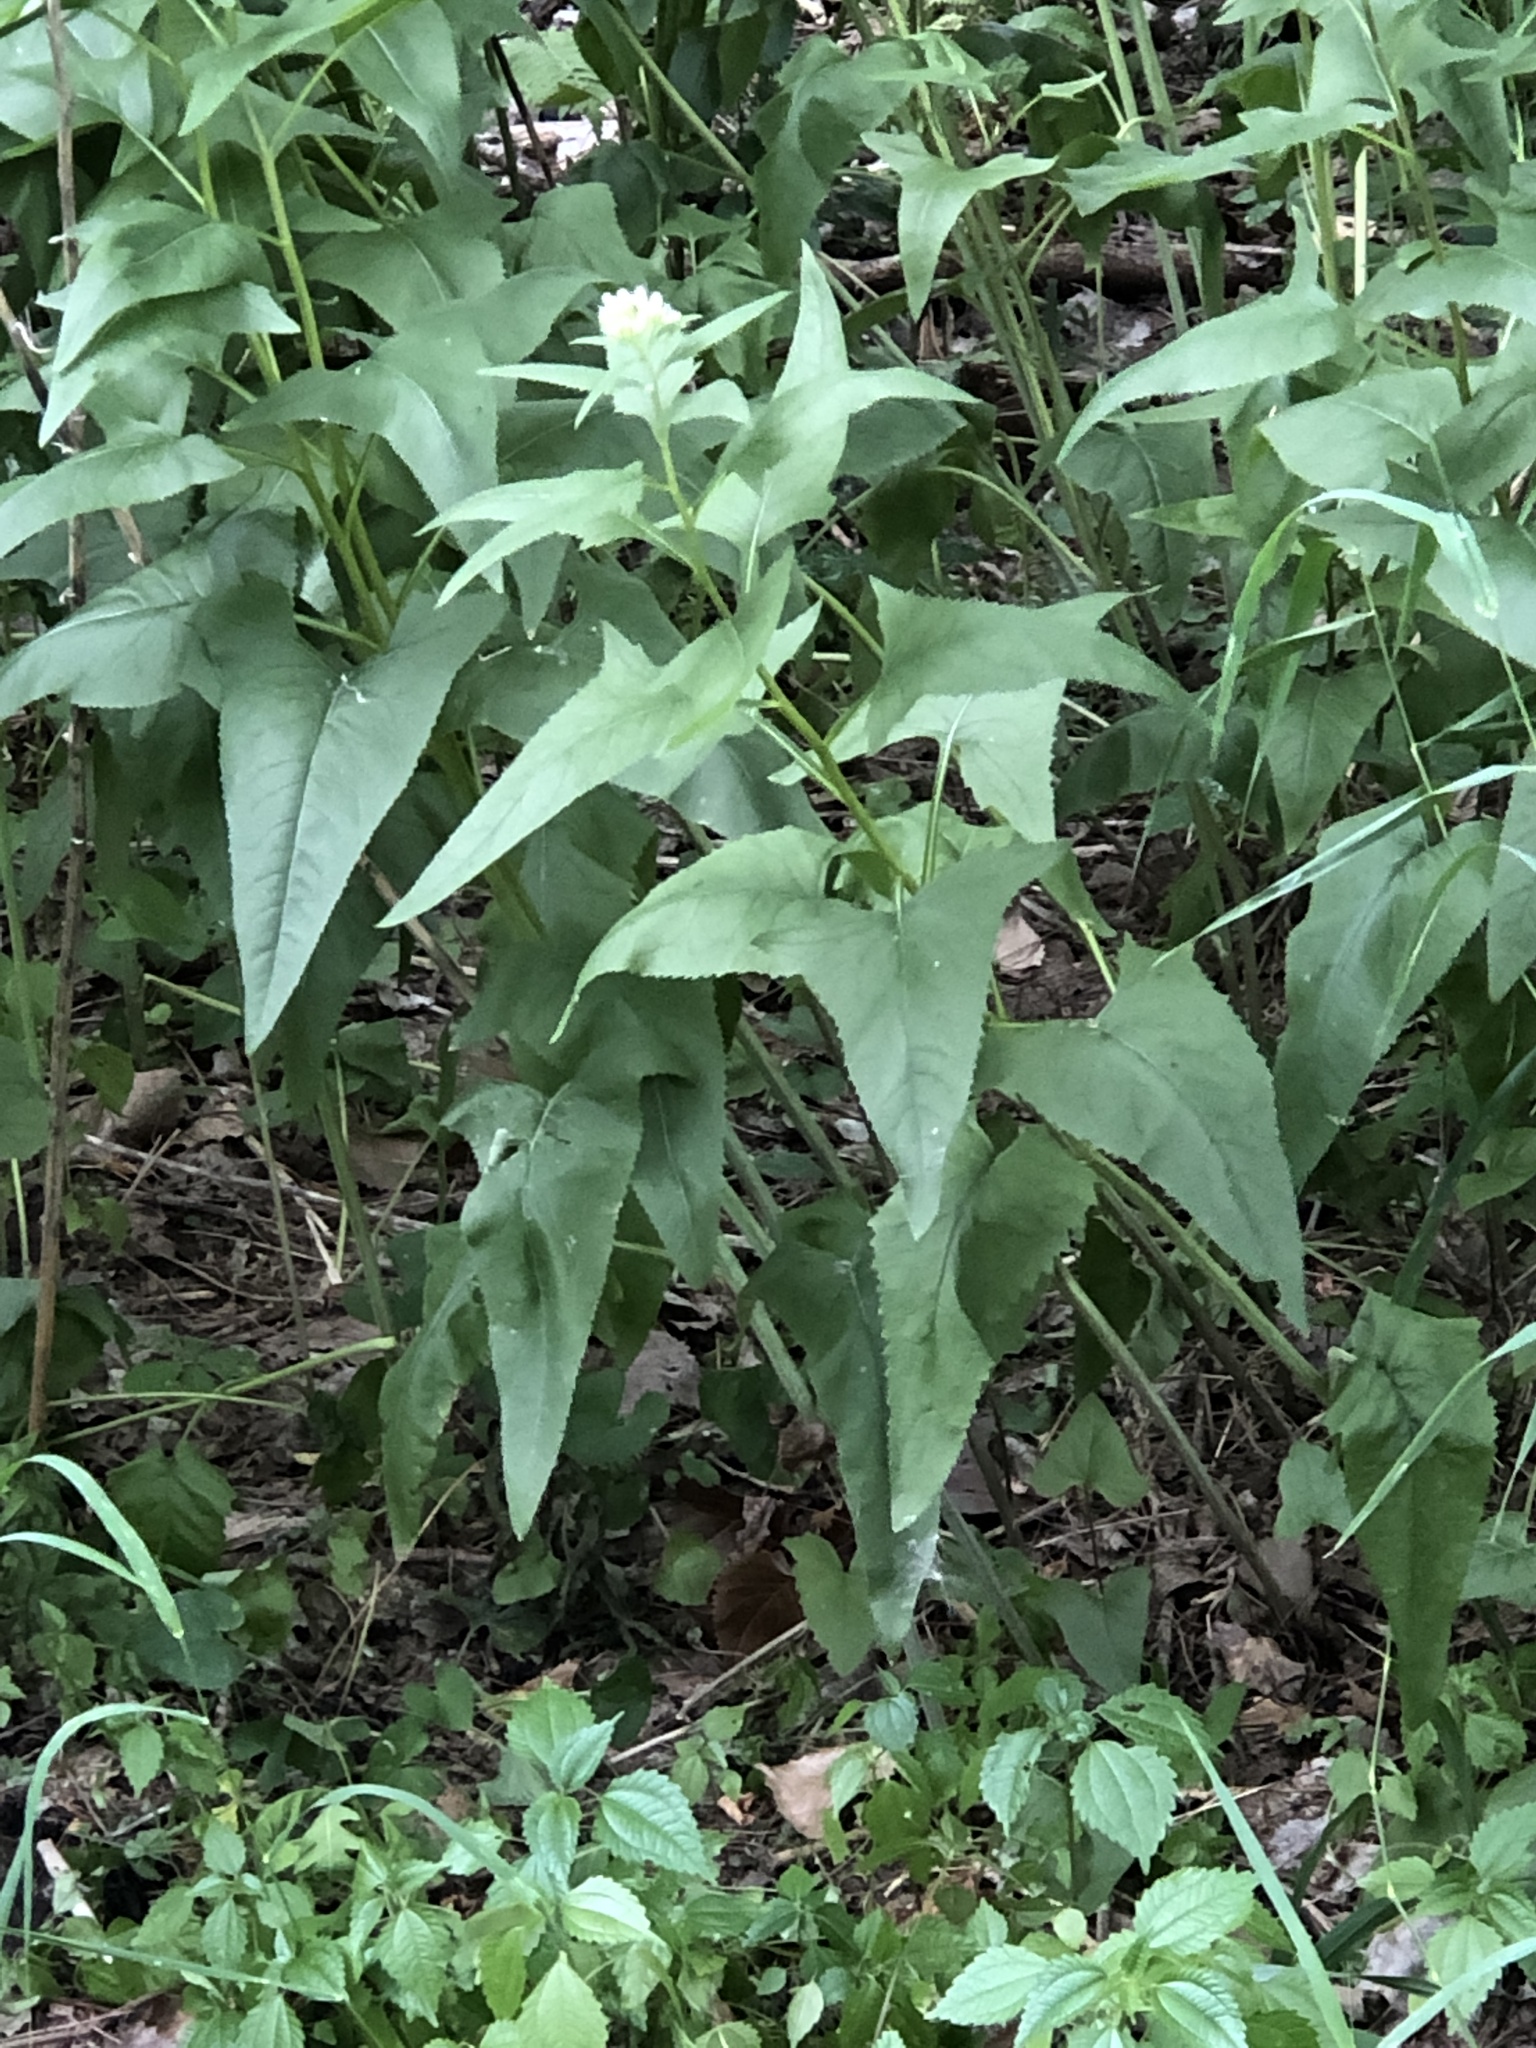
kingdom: Plantae
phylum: Tracheophyta
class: Magnoliopsida
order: Asterales
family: Asteraceae
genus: Hasteola
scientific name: Hasteola suaveolens
